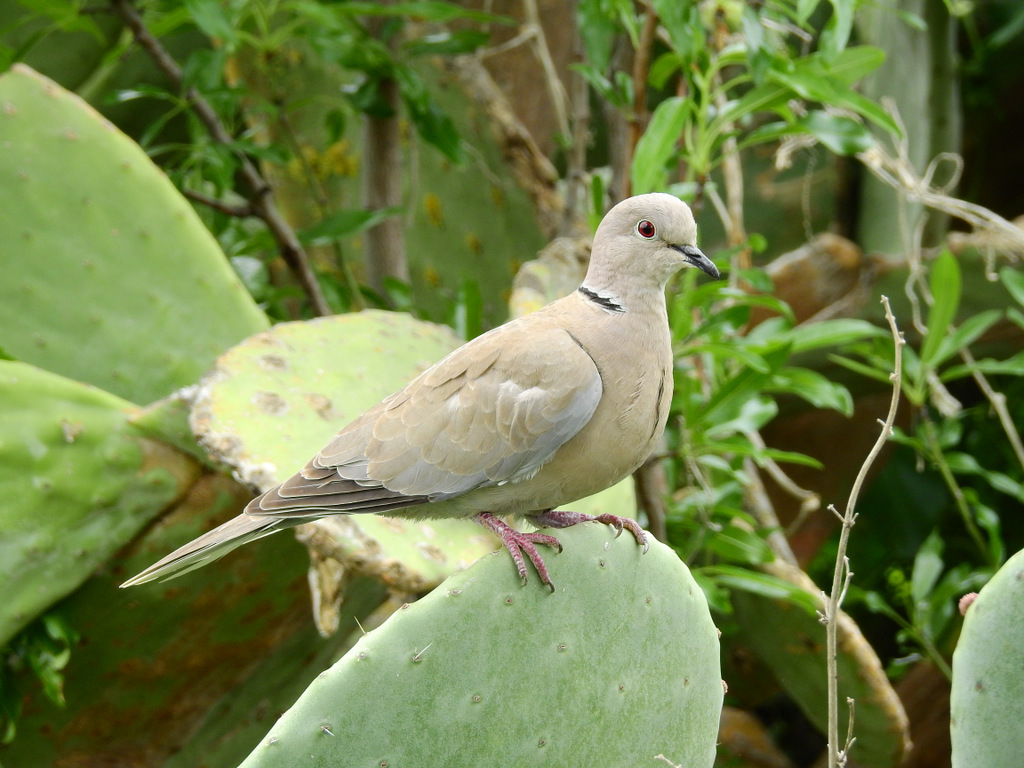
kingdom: Animalia
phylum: Chordata
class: Aves
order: Columbiformes
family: Columbidae
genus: Streptopelia
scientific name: Streptopelia decaocto
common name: Eurasian collared dove
